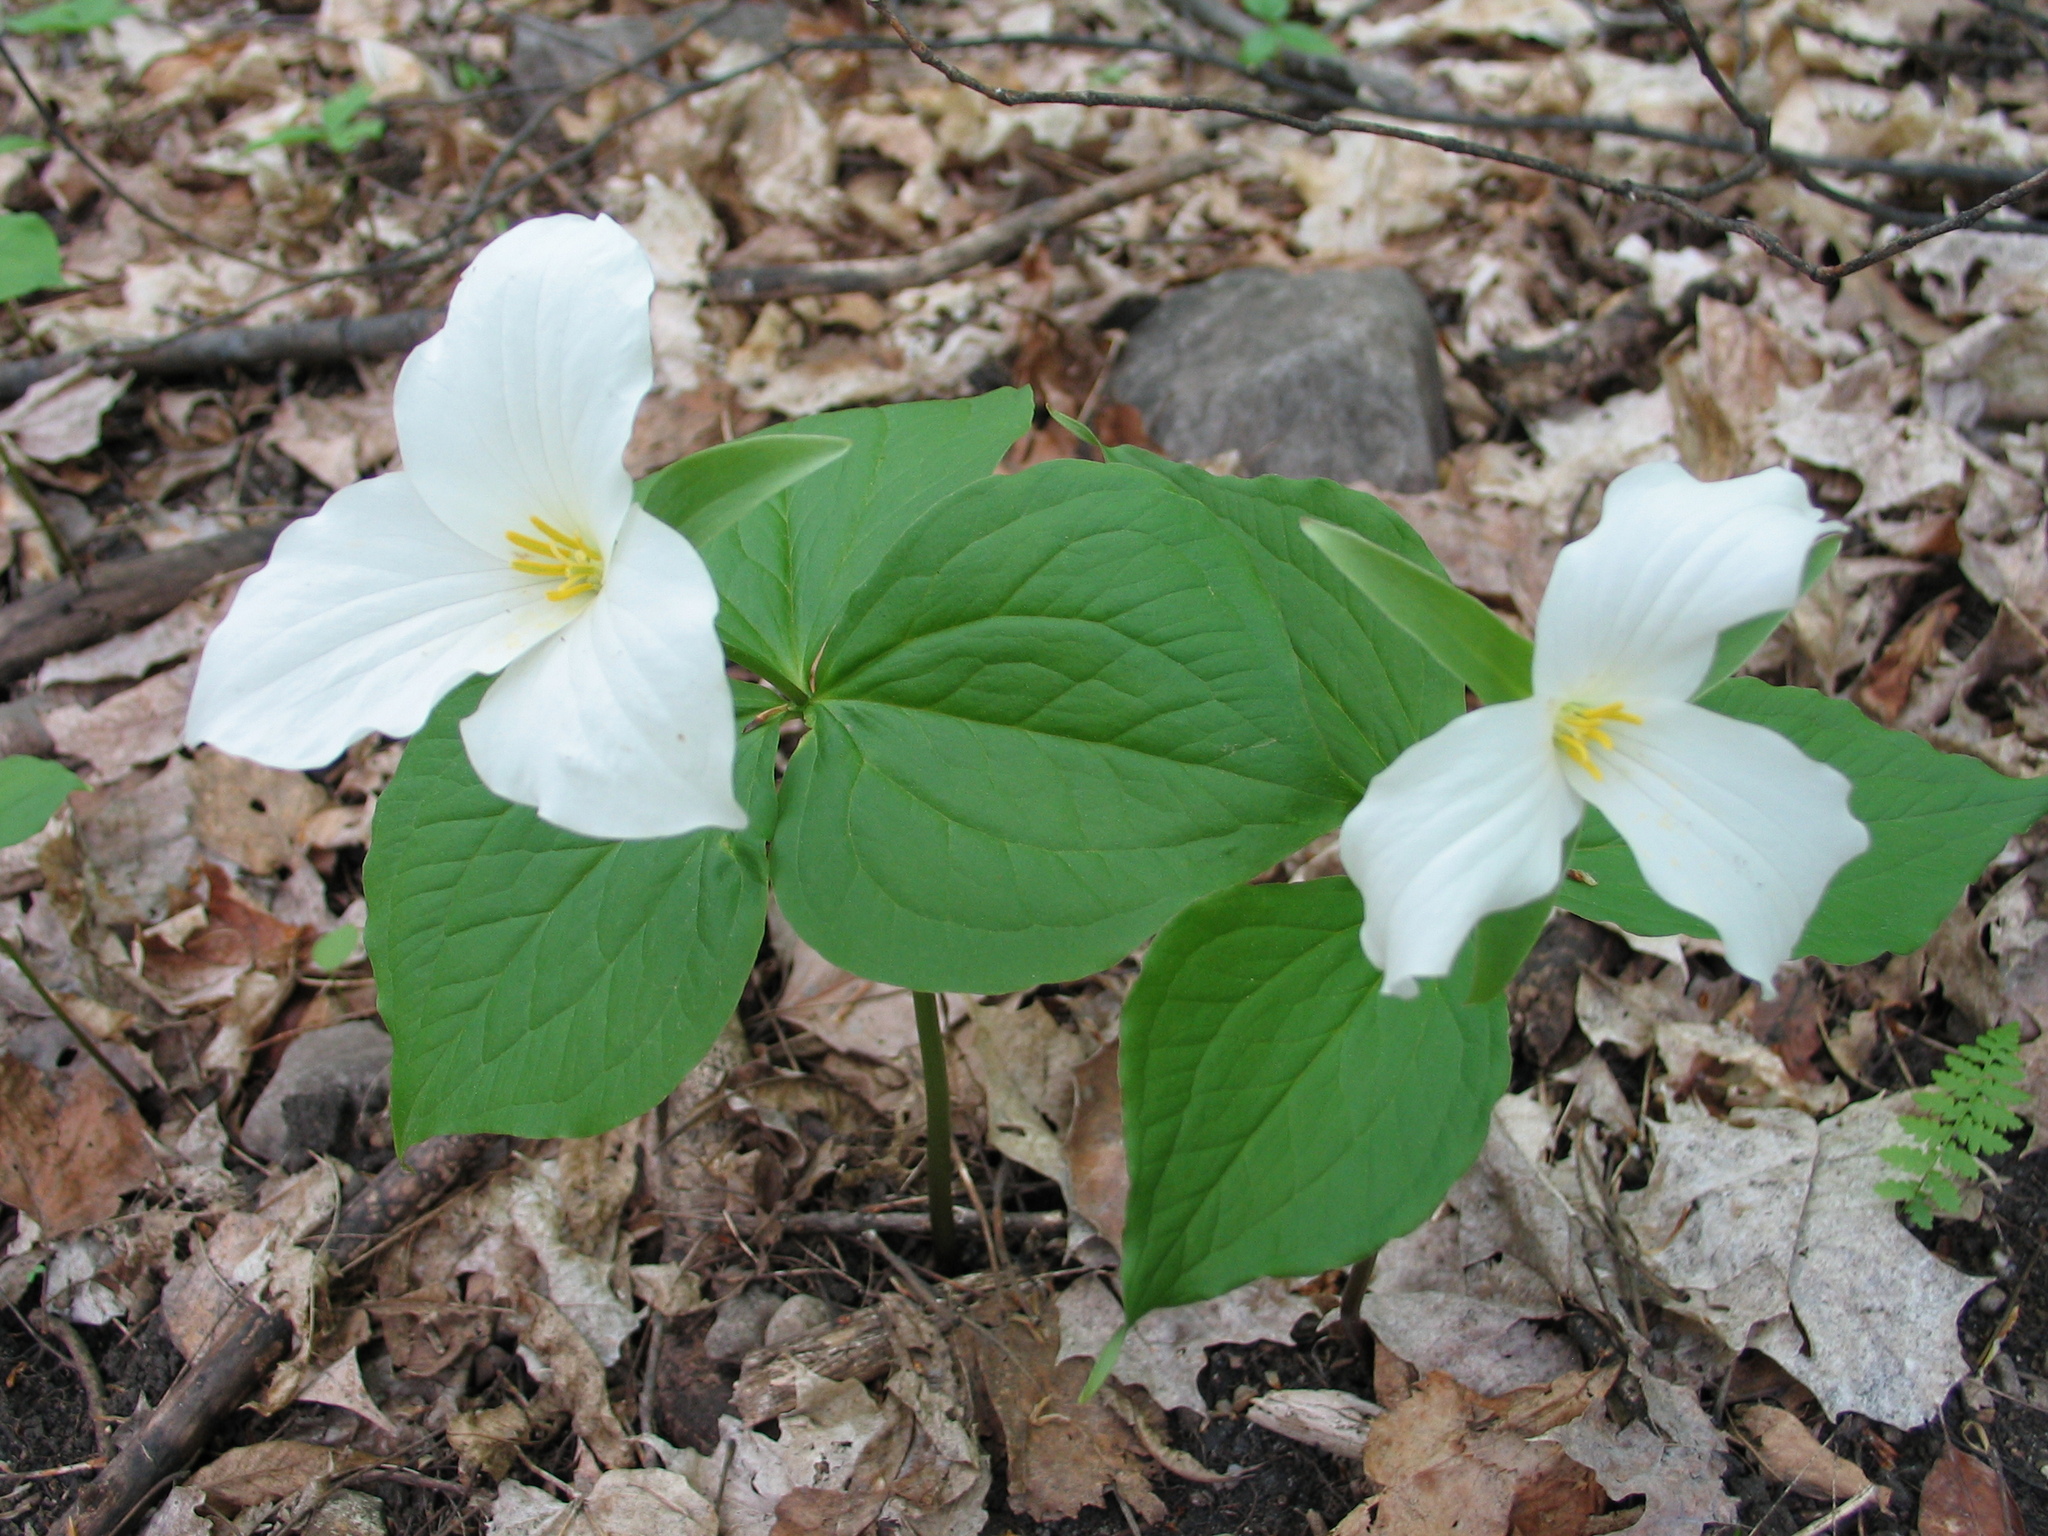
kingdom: Plantae
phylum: Tracheophyta
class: Liliopsida
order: Liliales
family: Melanthiaceae
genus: Trillium
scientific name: Trillium grandiflorum
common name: Great white trillium
